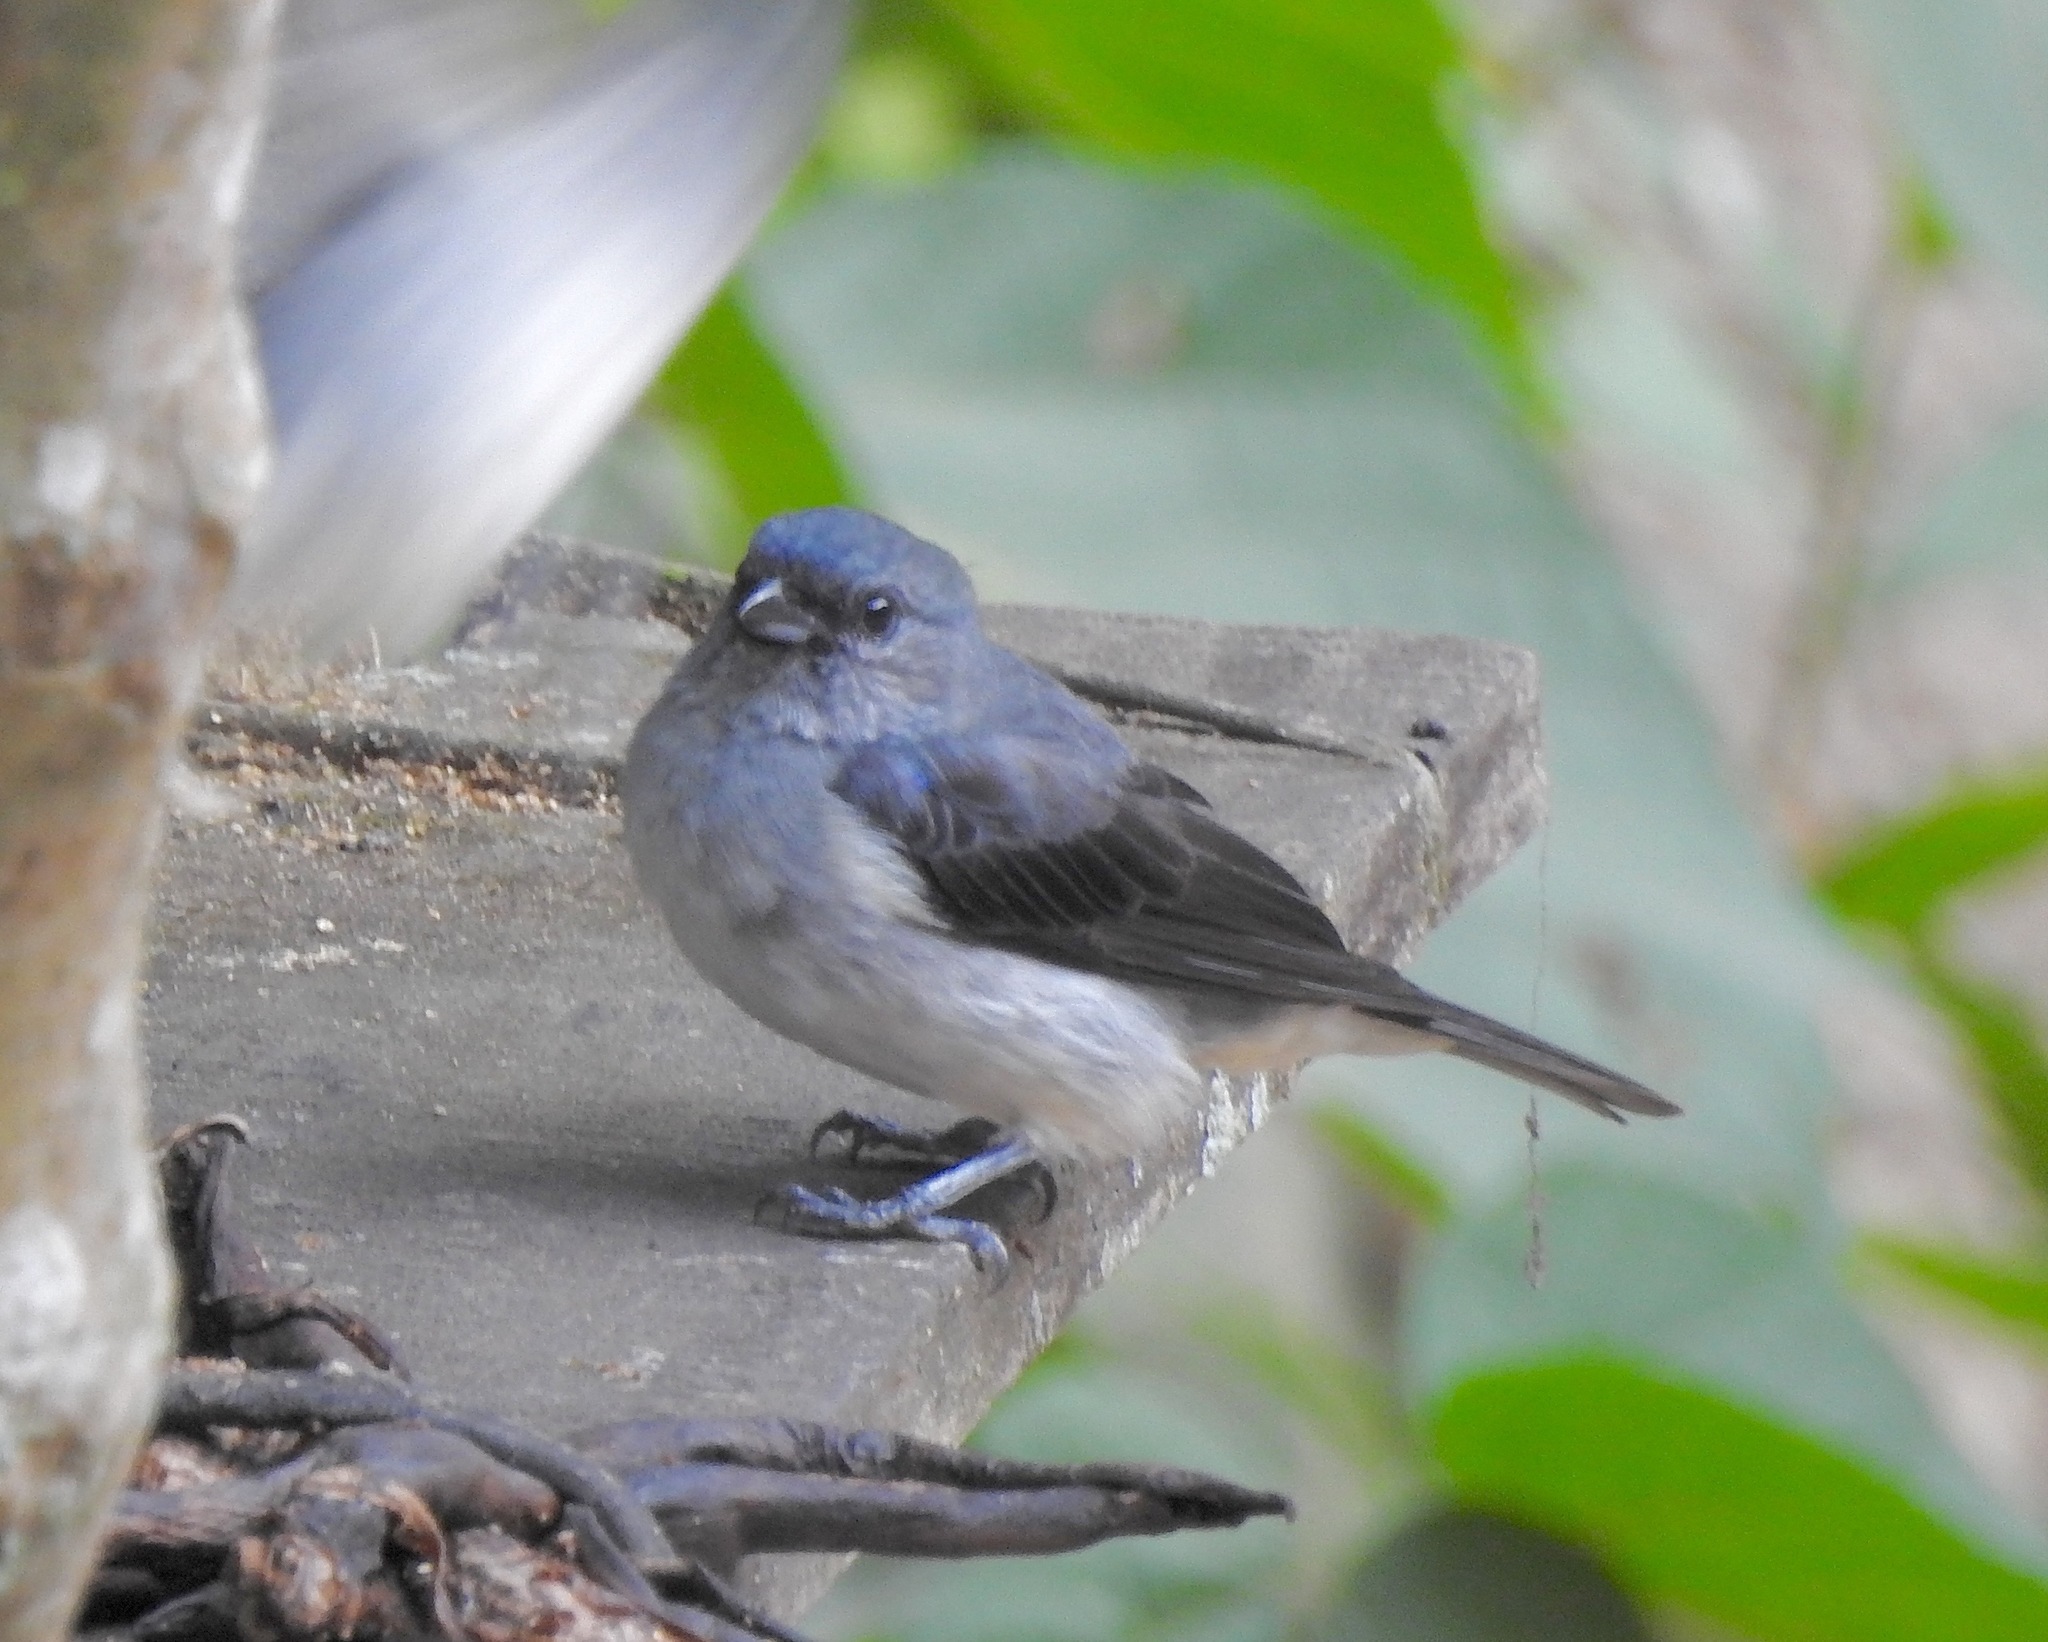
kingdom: Animalia
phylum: Chordata
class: Aves
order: Passeriformes
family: Thraupidae
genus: Tangara
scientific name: Tangara inornata
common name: Plain-colored tanager
